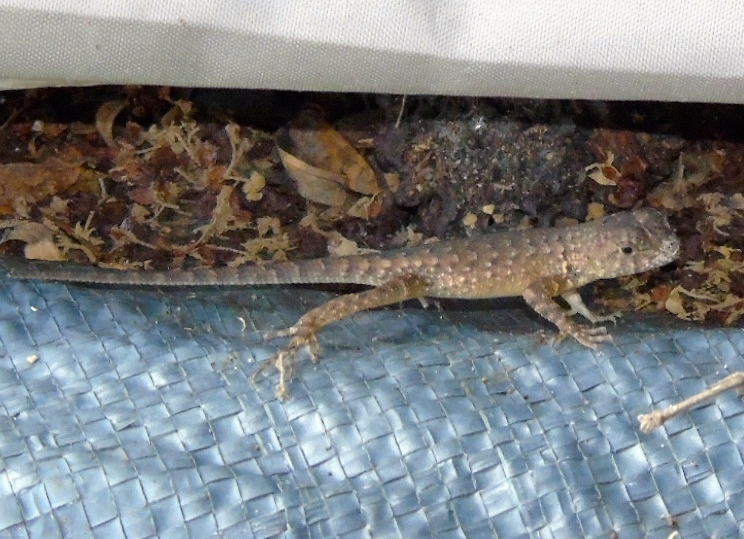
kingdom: Animalia
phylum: Chordata
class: Squamata
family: Phrynosomatidae
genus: Sceloporus
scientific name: Sceloporus nelsoni
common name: Nelson's spiny lizard
